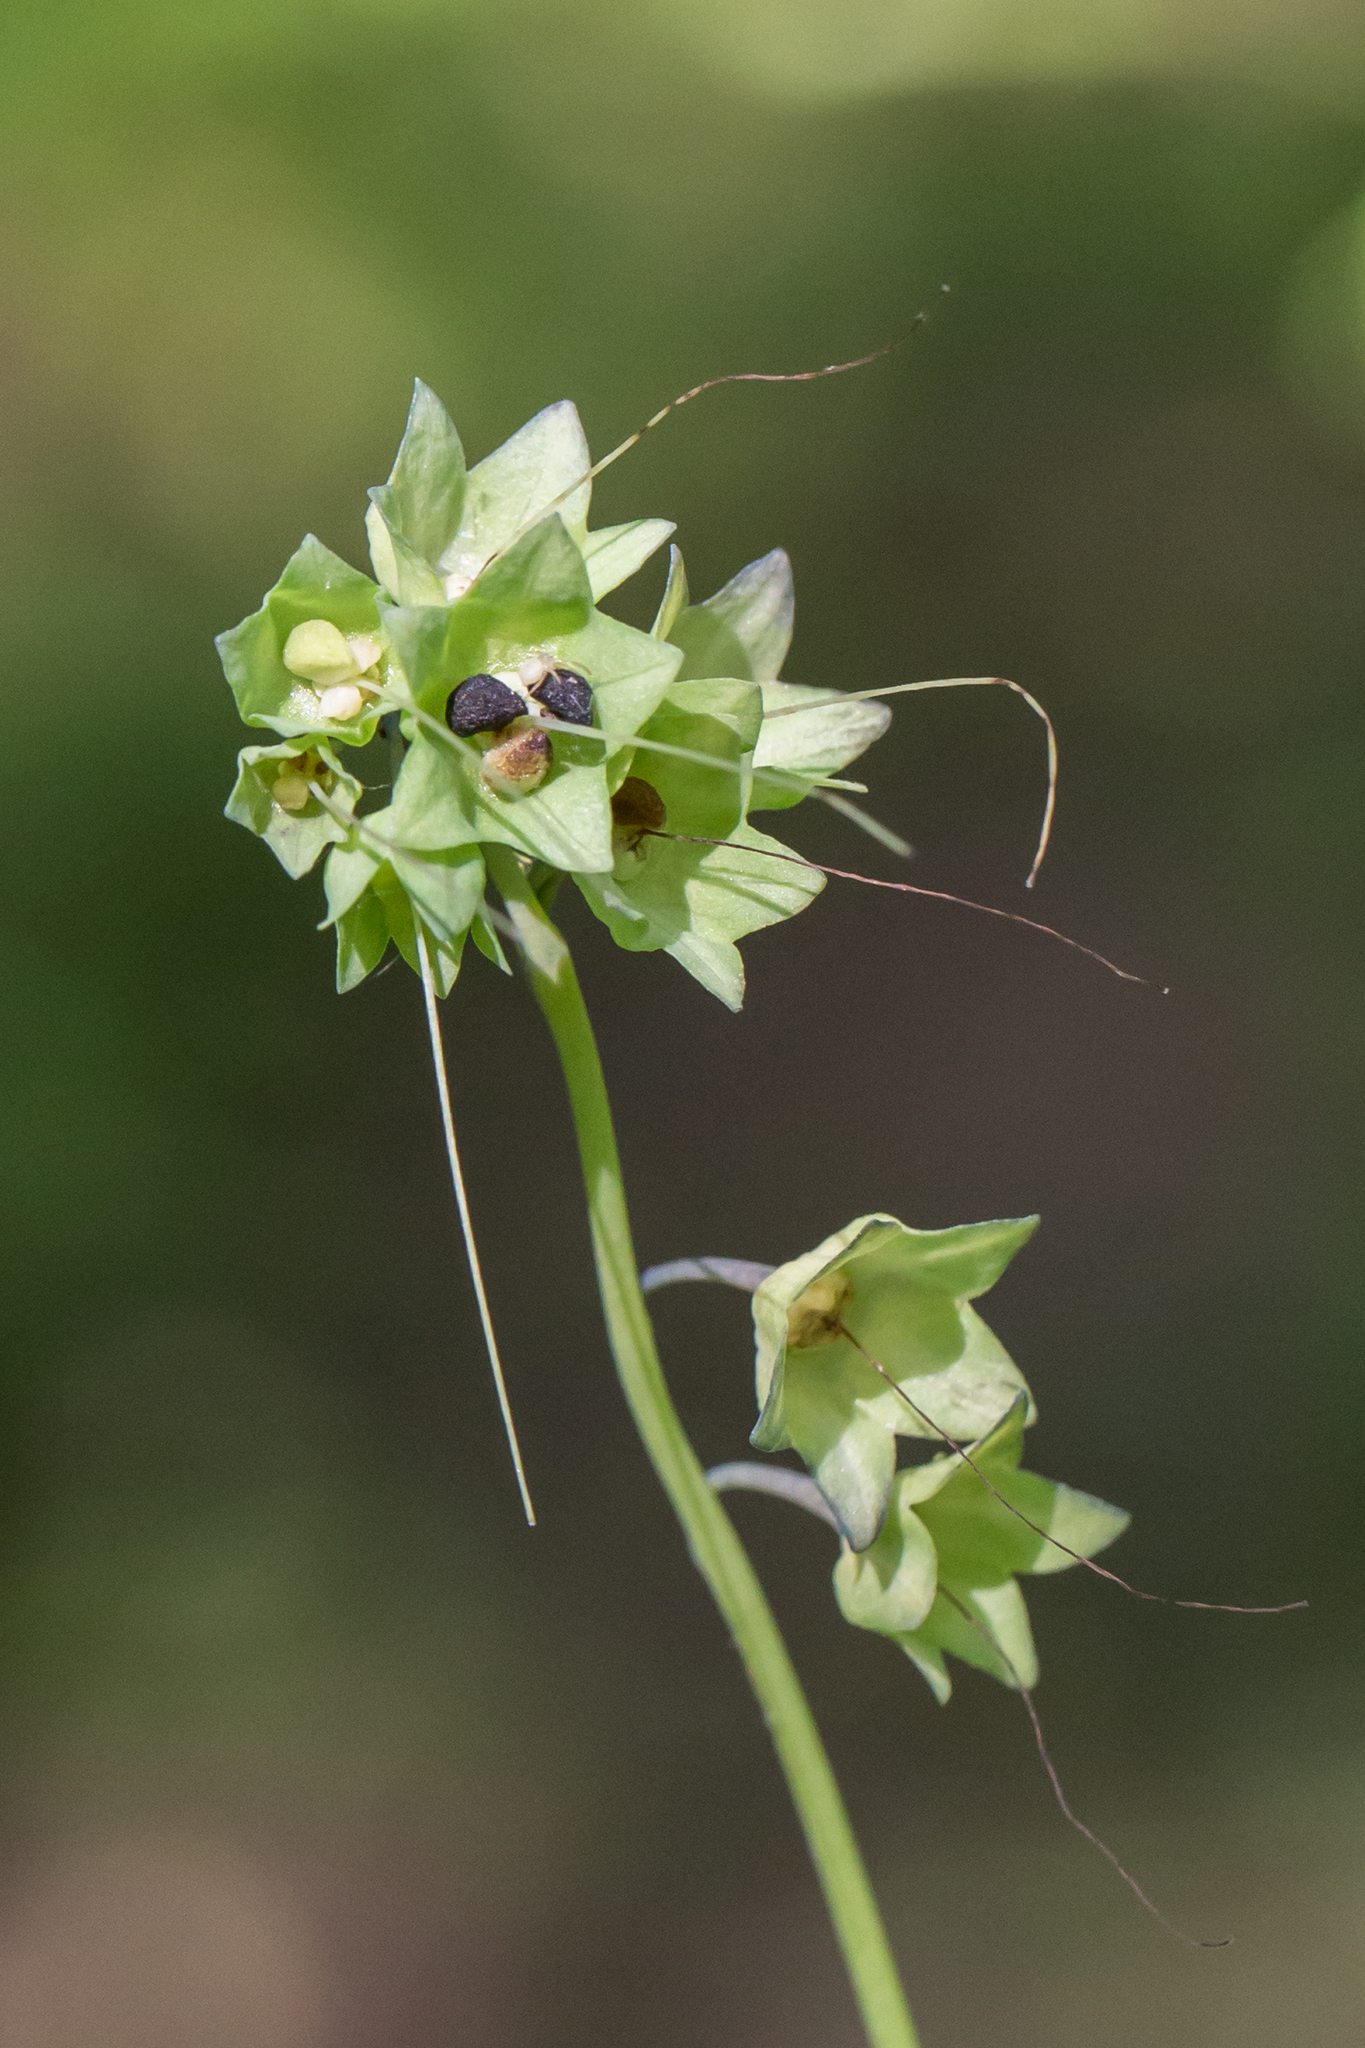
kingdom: Plantae
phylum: Tracheophyta
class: Magnoliopsida
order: Boraginales
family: Boraginaceae
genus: Mertensia
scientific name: Mertensia virginica
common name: Virginia bluebells
